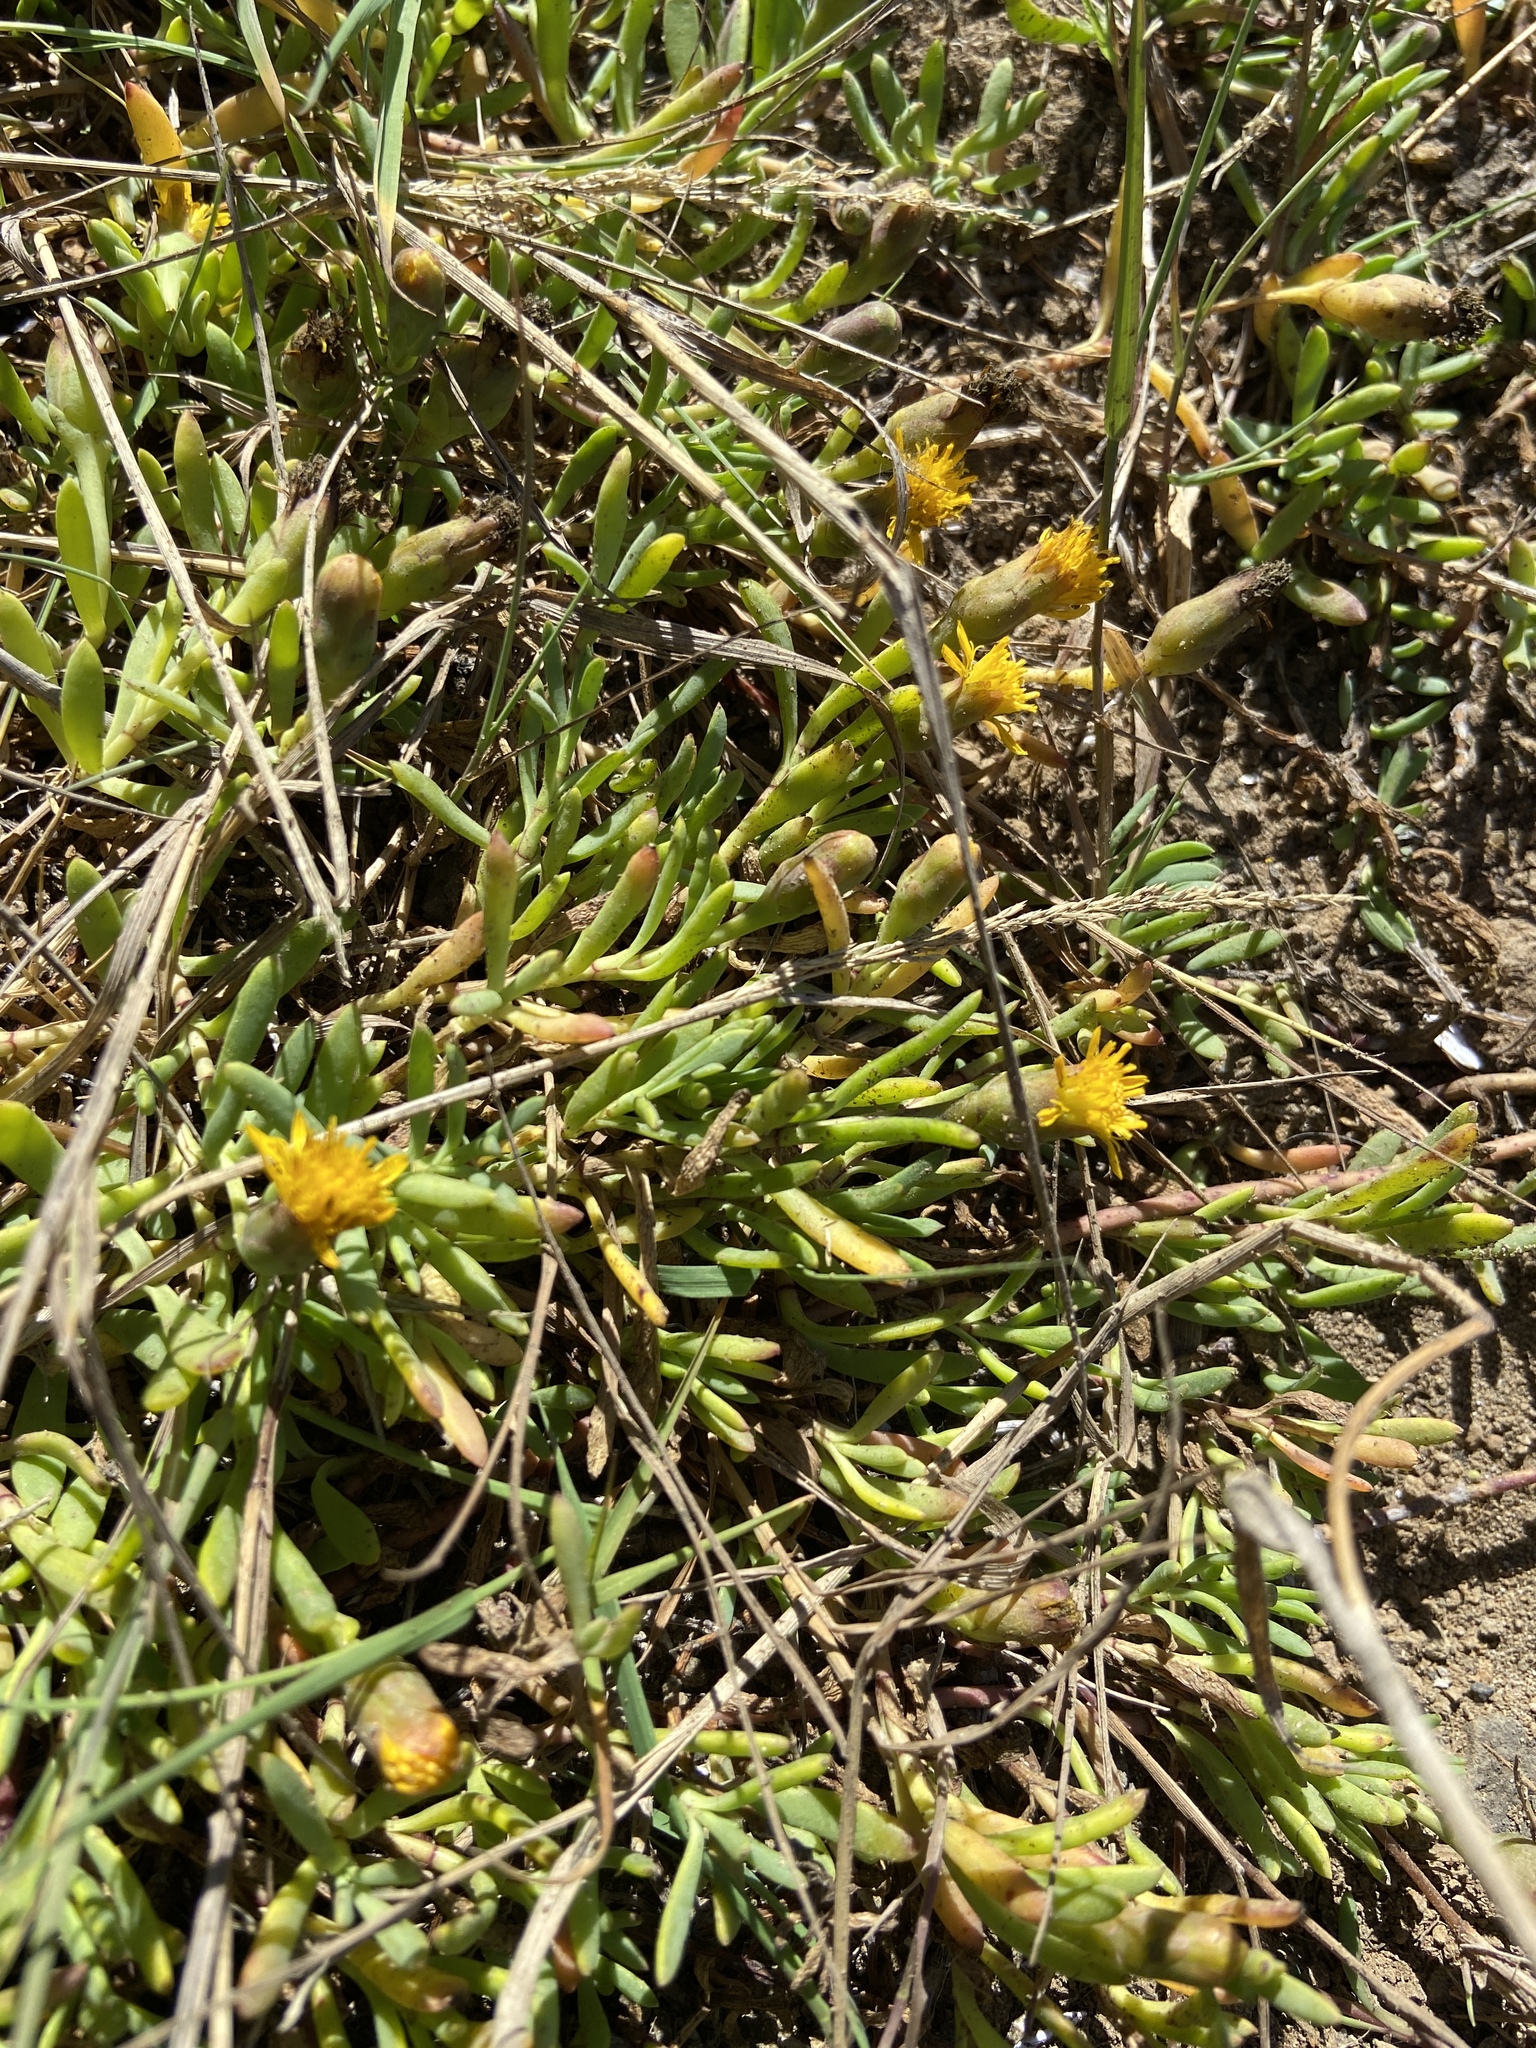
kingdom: Plantae
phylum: Tracheophyta
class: Magnoliopsida
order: Asterales
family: Asteraceae
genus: Jaumea
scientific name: Jaumea carnosa
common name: Fleshy jaumea
